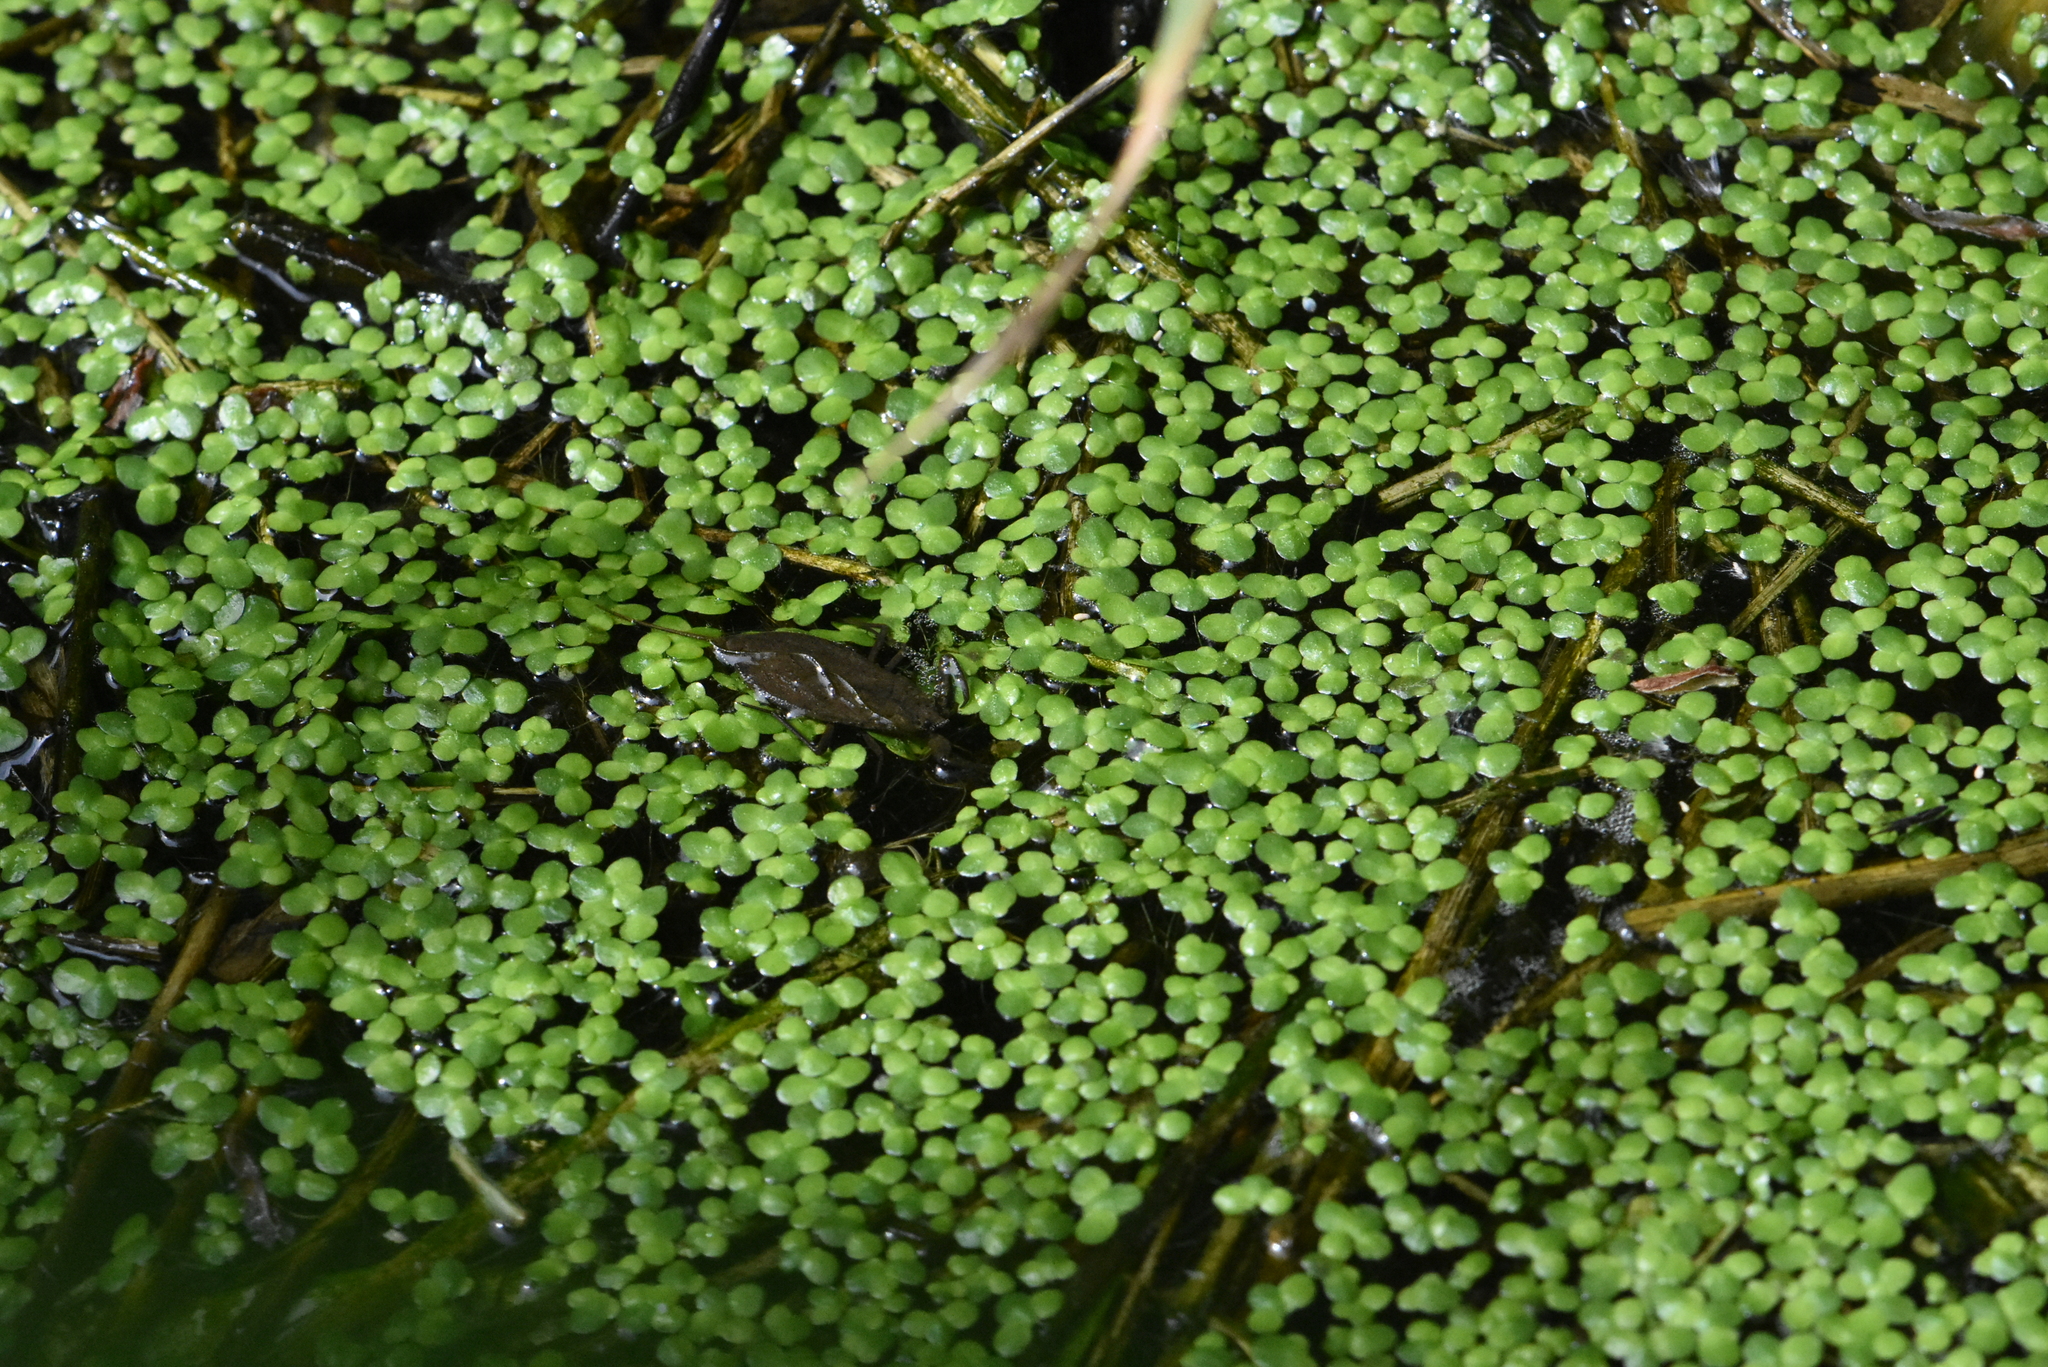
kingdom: Plantae
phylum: Tracheophyta
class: Liliopsida
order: Alismatales
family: Araceae
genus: Lemna
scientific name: Lemna minor
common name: Common duckweed
